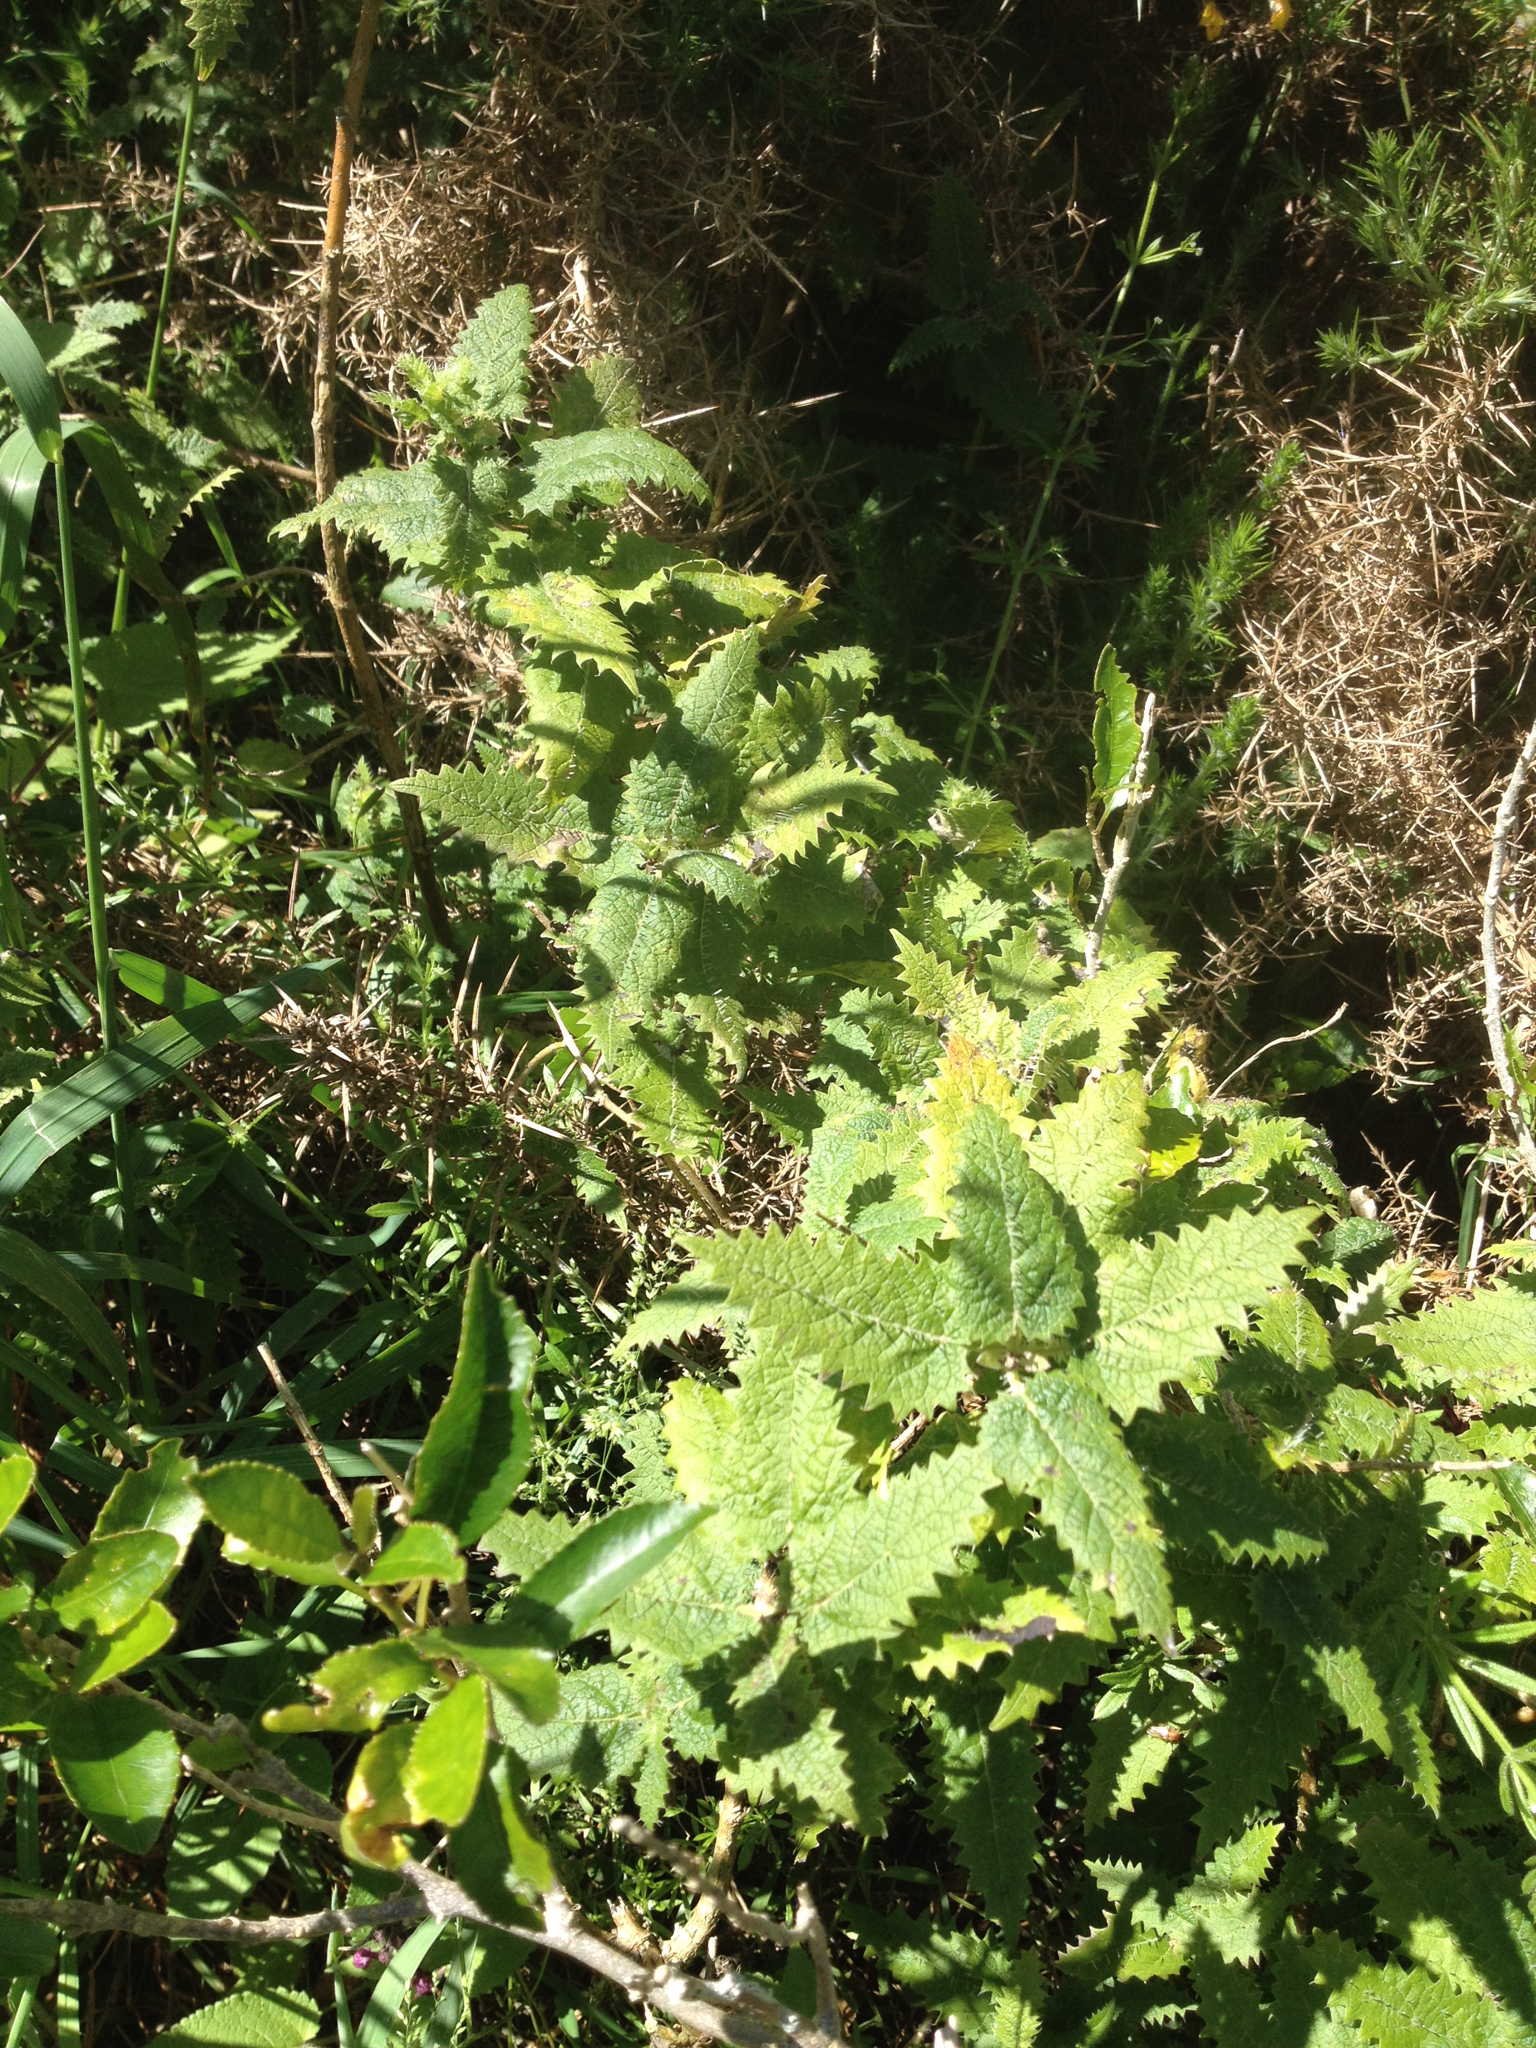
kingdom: Plantae
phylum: Tracheophyta
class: Magnoliopsida
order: Rosales
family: Urticaceae
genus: Urtica
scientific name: Urtica ferox
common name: Tree nettle
